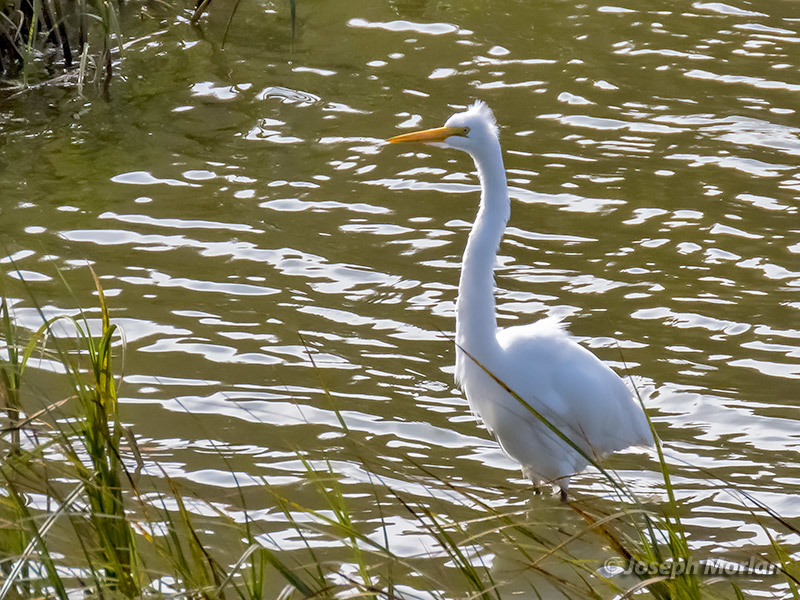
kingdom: Animalia
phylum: Chordata
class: Aves
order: Pelecaniformes
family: Ardeidae
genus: Ardea
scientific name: Ardea alba
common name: Great egret
